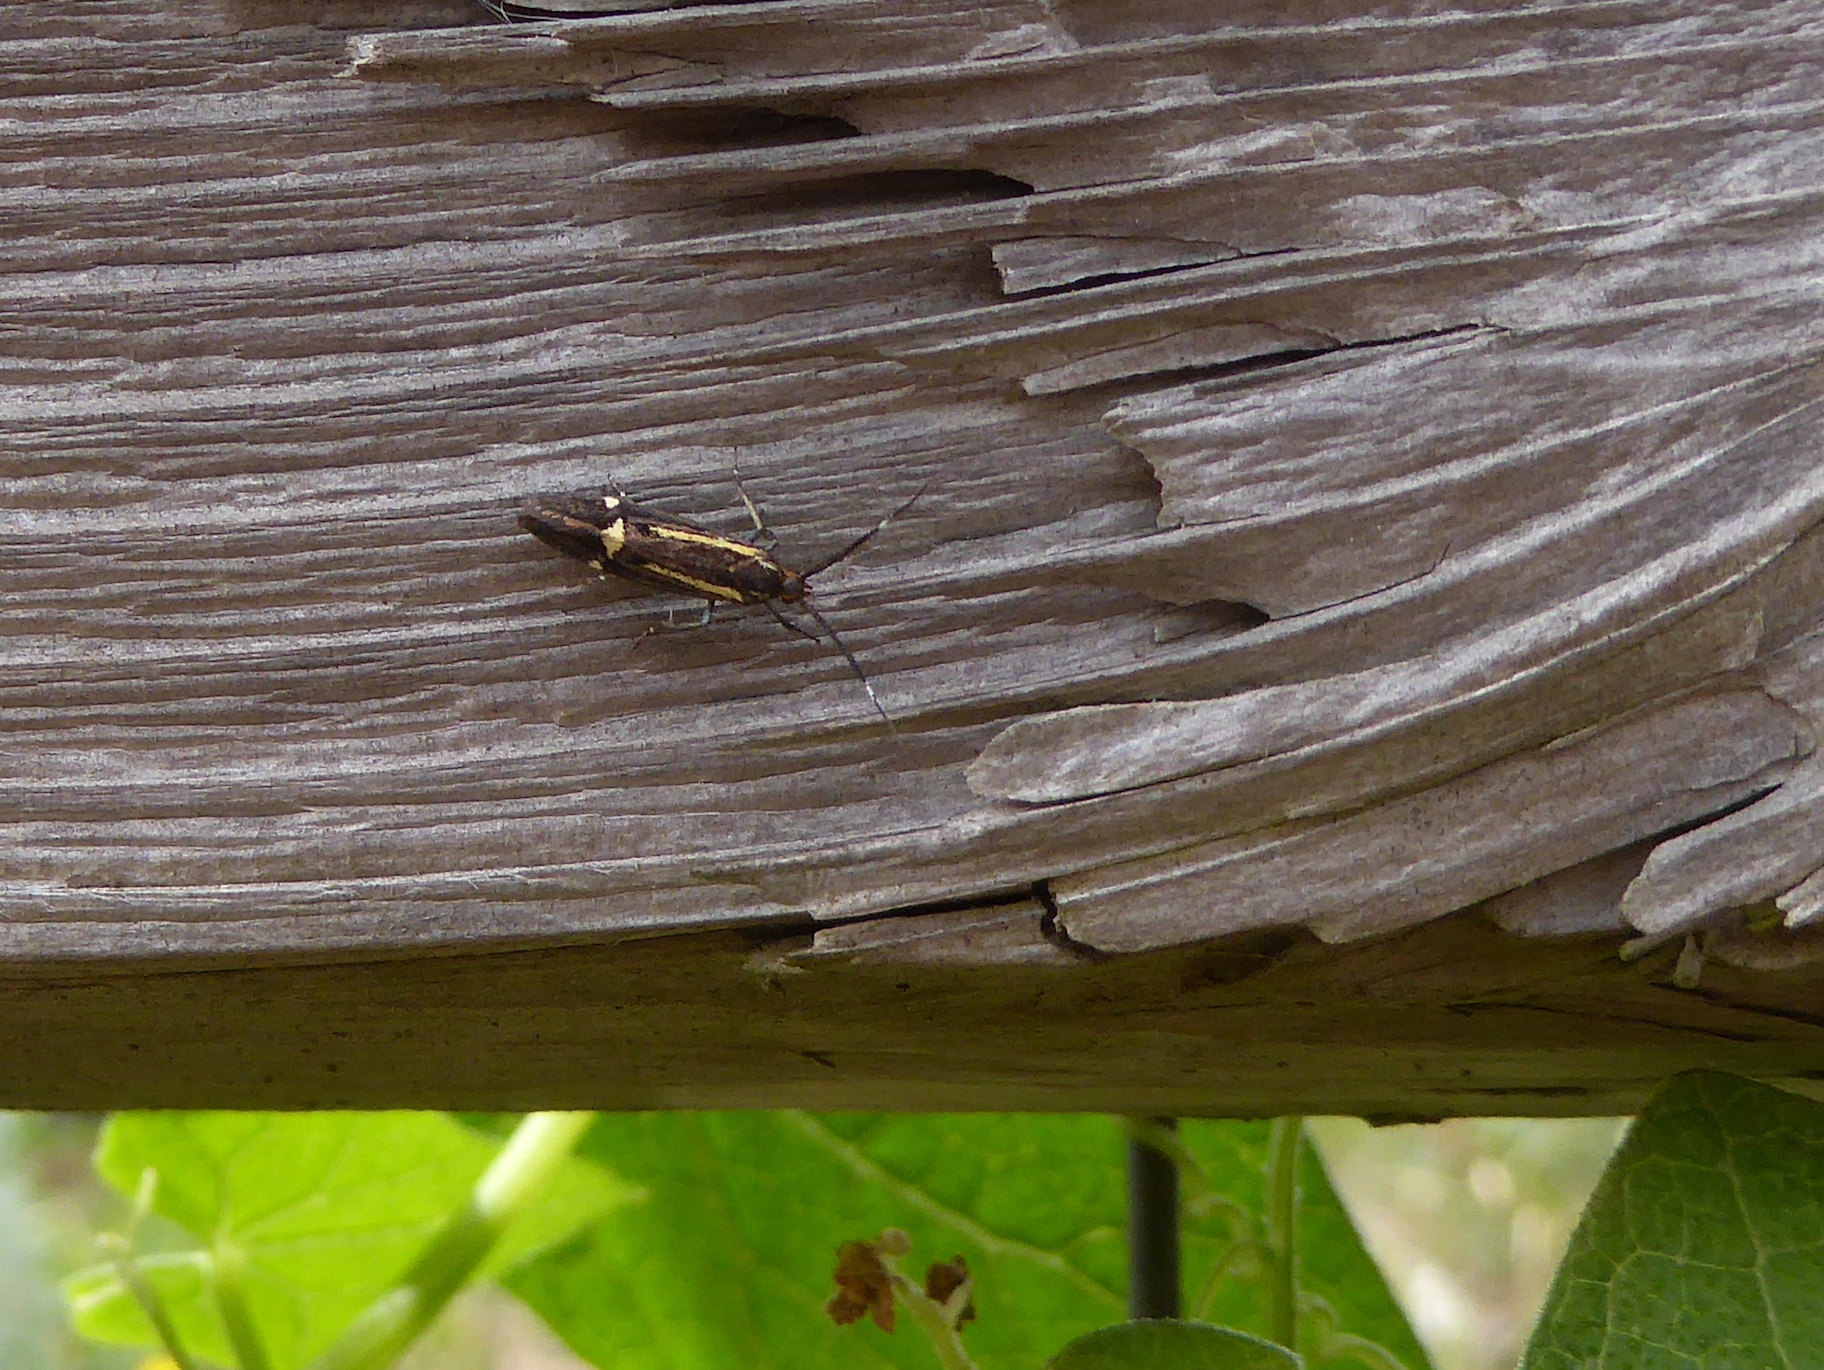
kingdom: Animalia
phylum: Arthropoda
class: Insecta
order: Lepidoptera
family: Oecophoridae
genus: Dafa
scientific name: Dafa Esperia sulphurella
